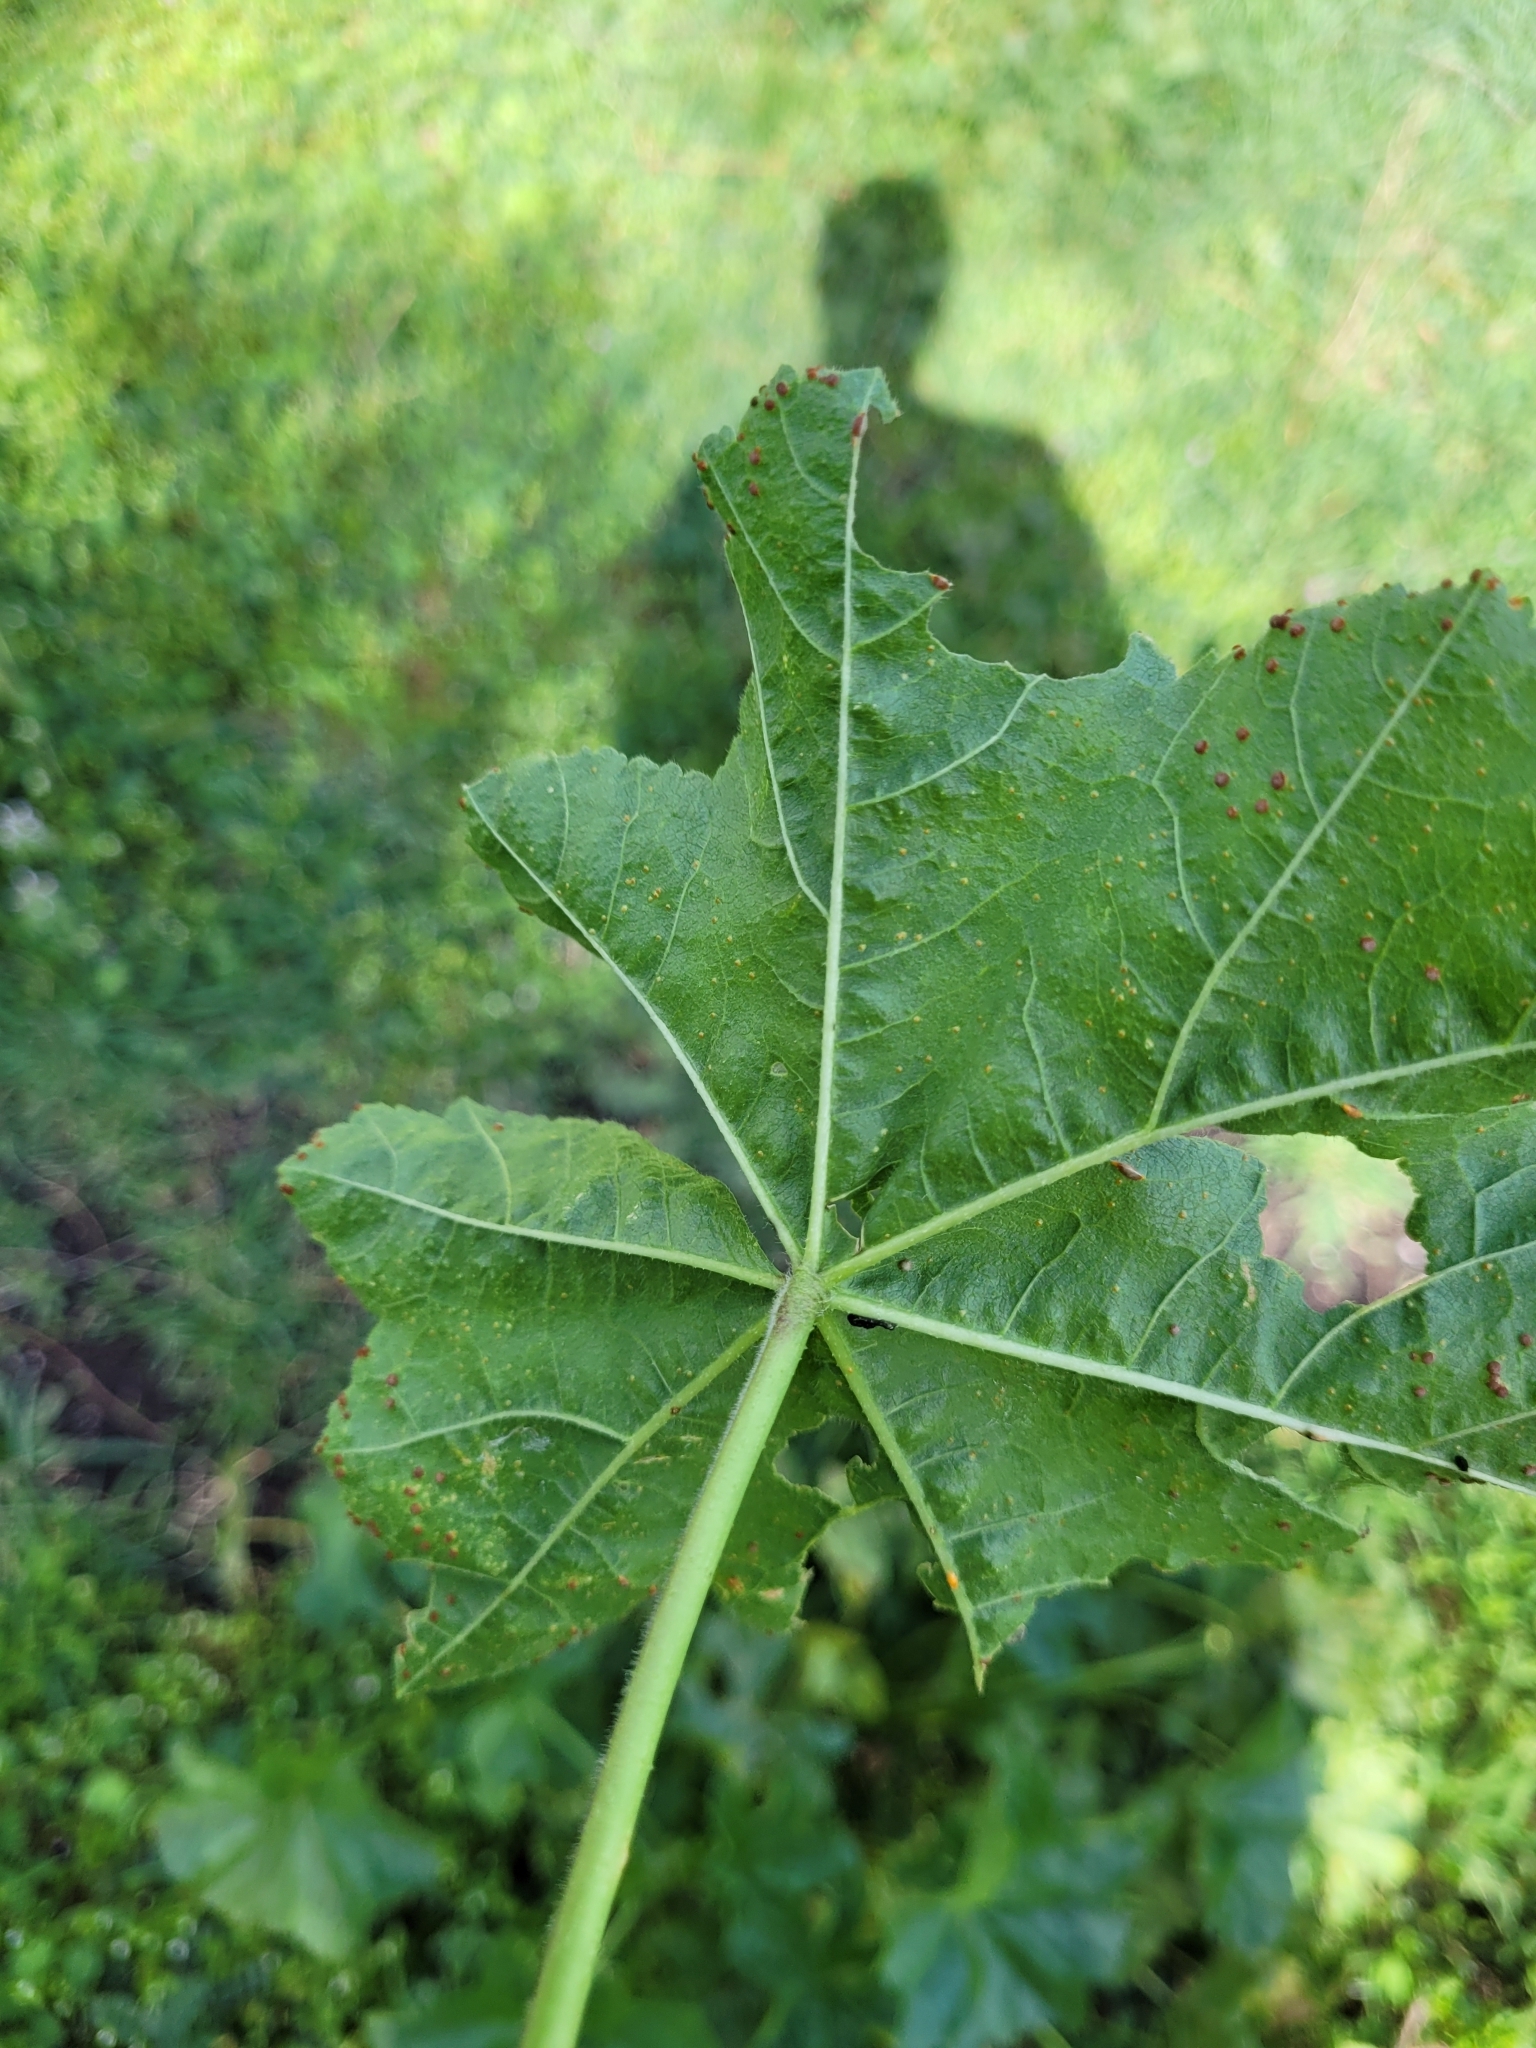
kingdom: Plantae
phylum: Tracheophyta
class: Magnoliopsida
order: Malvales
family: Malvaceae
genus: Malva
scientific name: Malva sylvestris
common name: Common mallow
